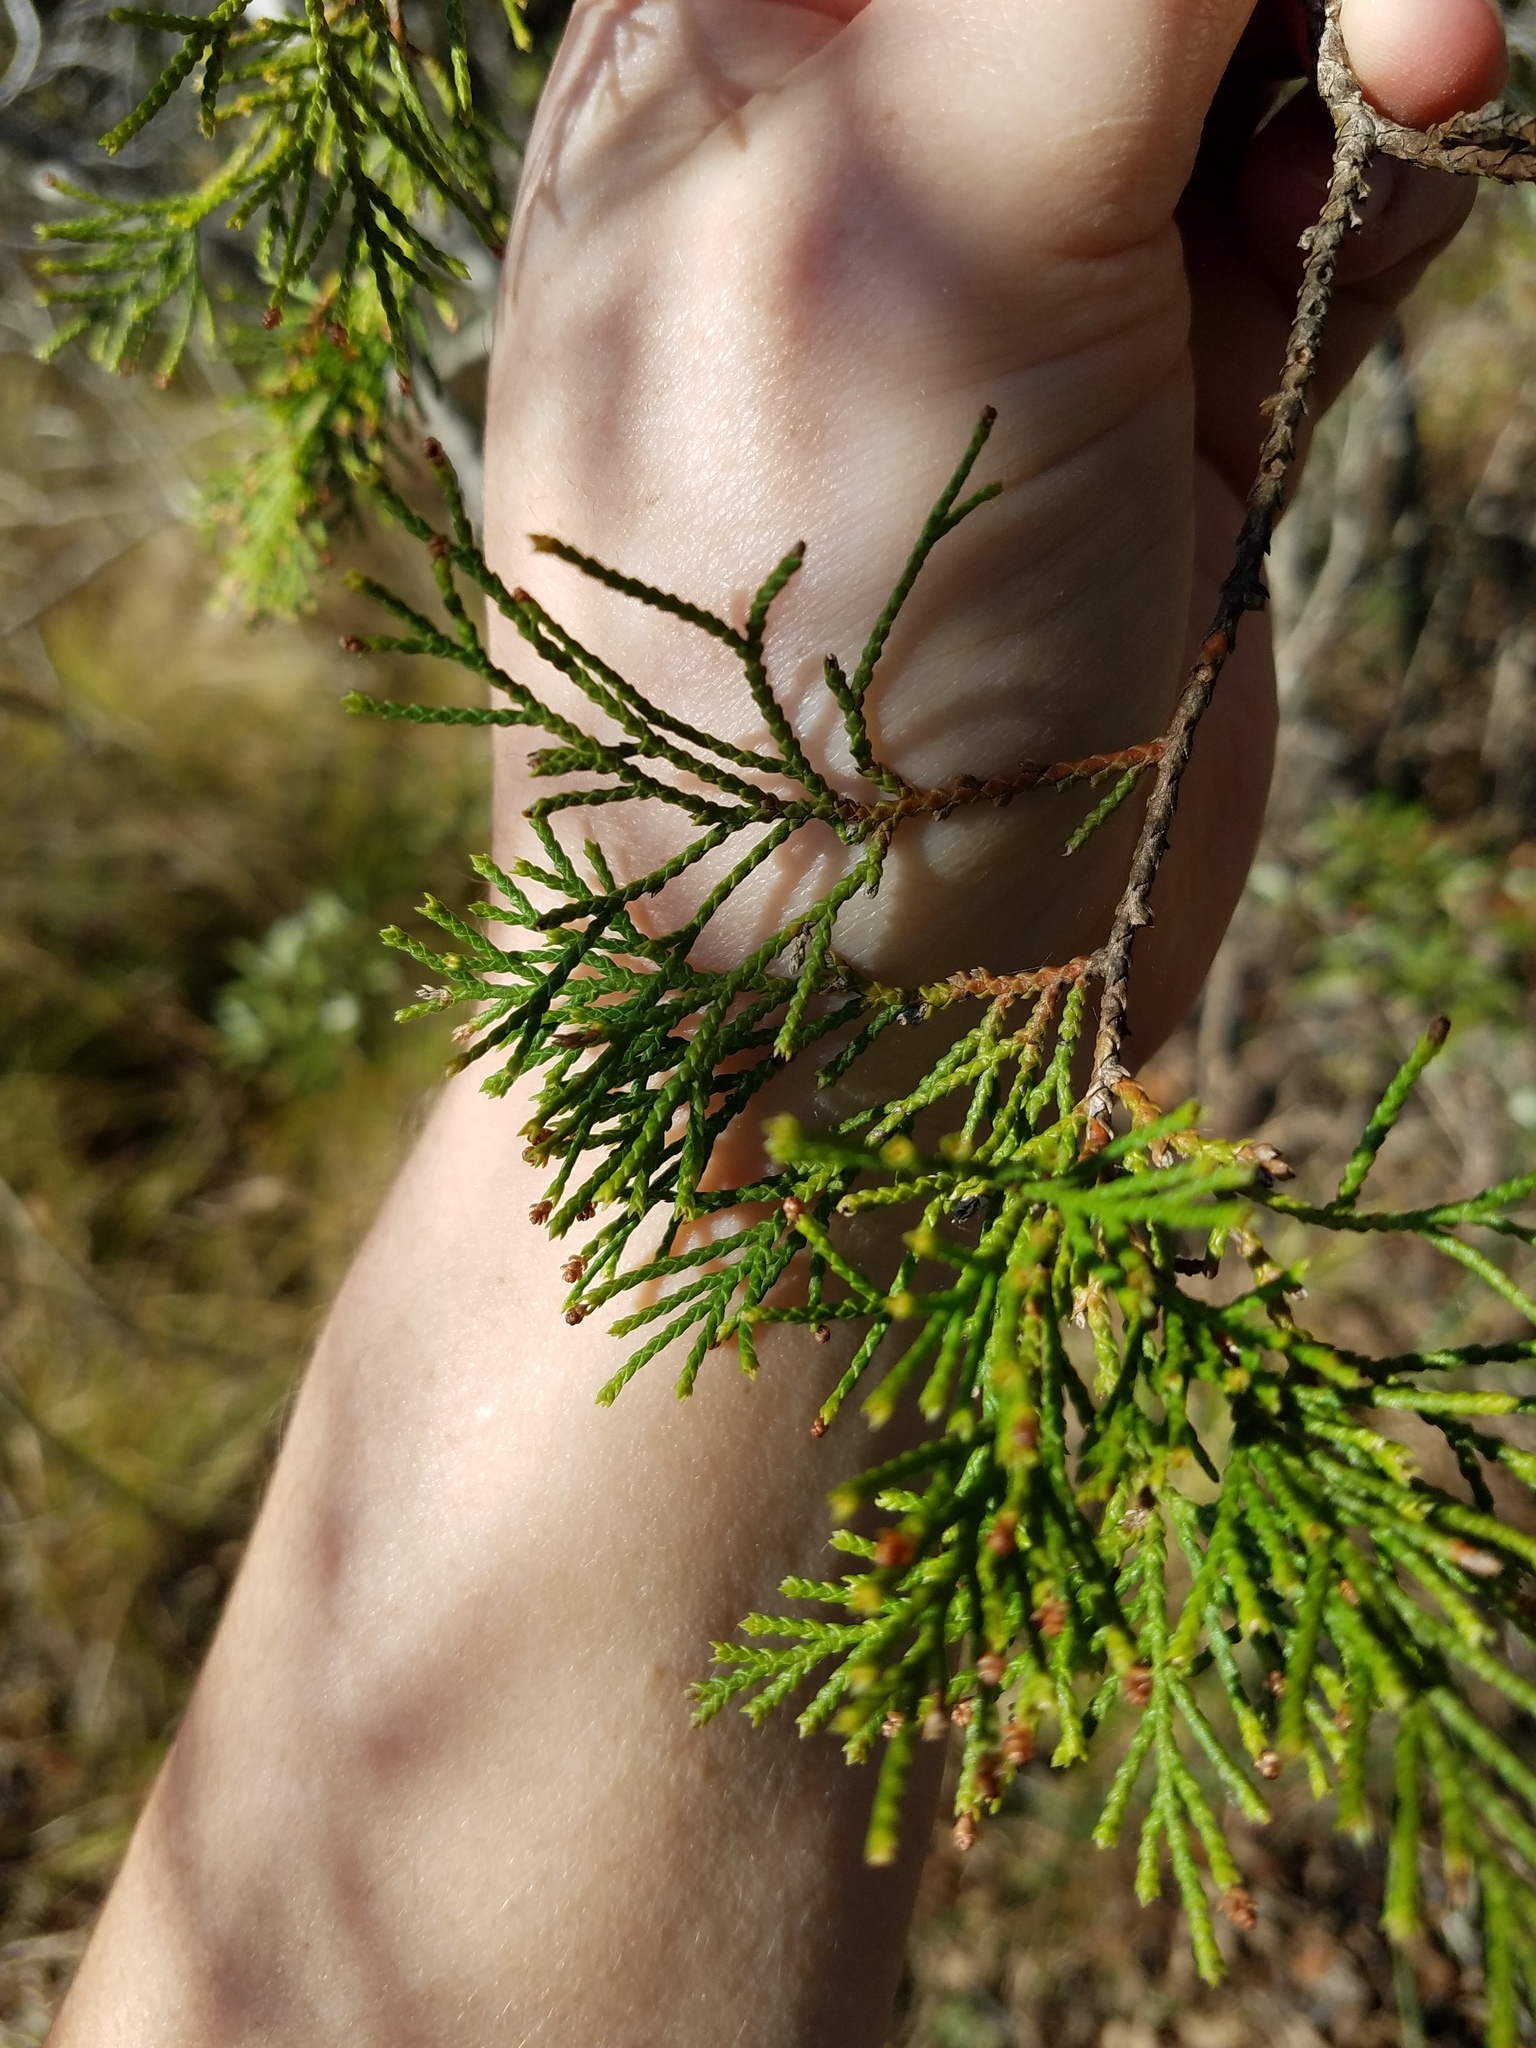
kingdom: Plantae
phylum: Tracheophyta
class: Pinopsida
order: Pinales
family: Cupressaceae
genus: Chamaecyparis
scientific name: Chamaecyparis thyoides
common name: Atlantic white cedar
